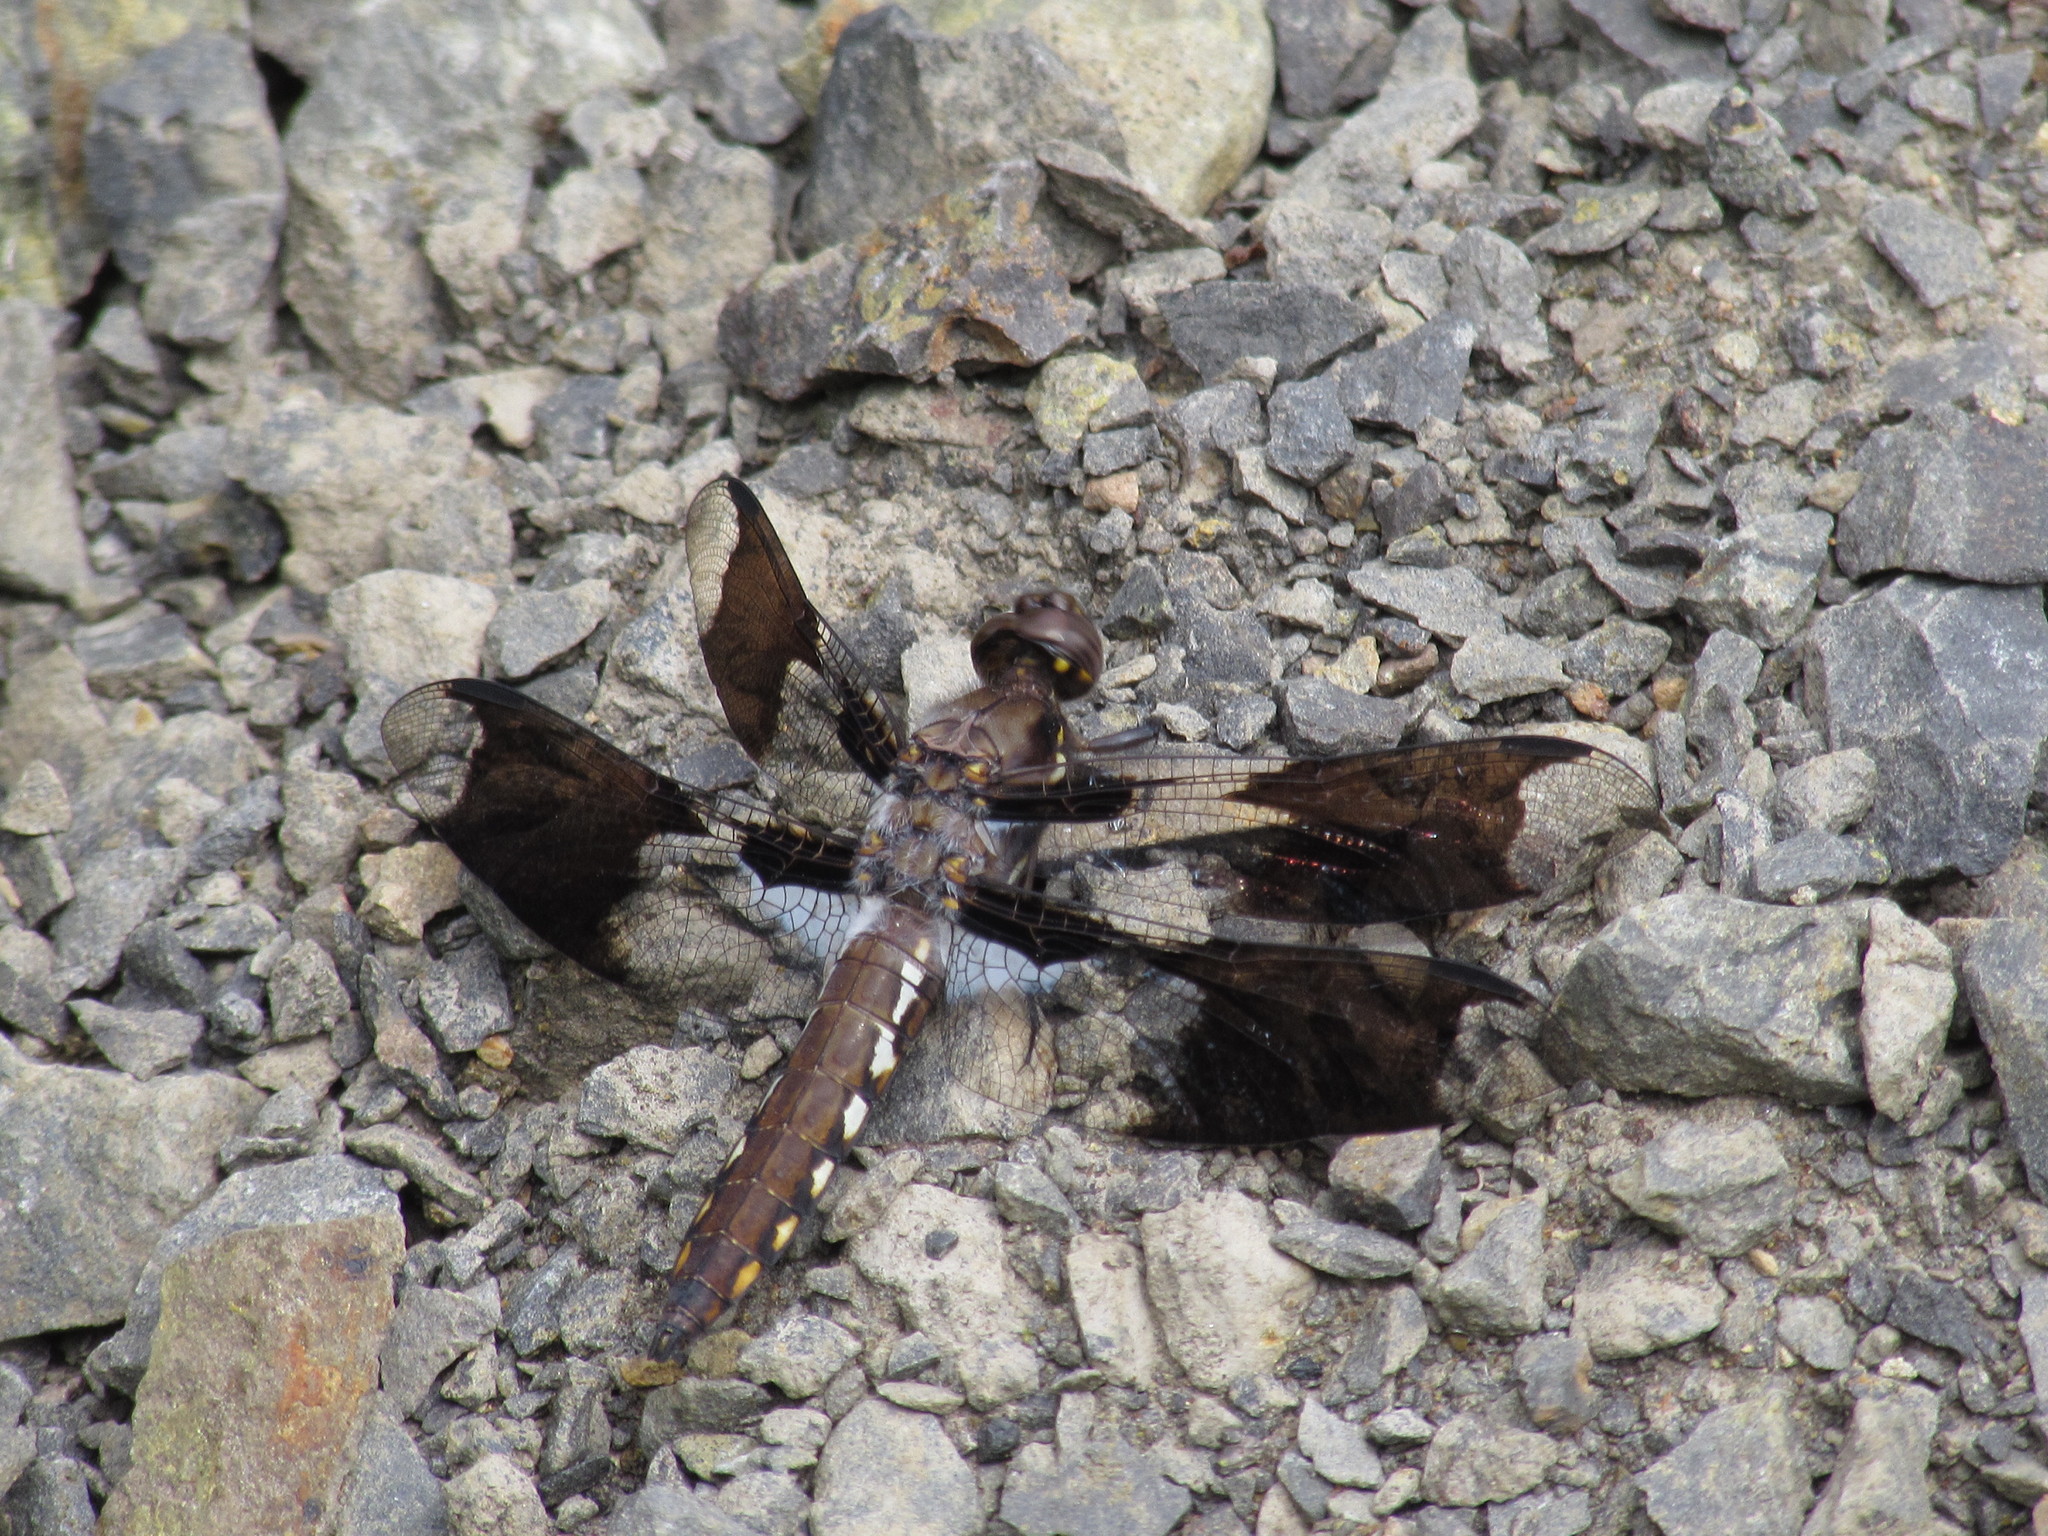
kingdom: Animalia
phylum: Arthropoda
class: Insecta
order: Odonata
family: Libellulidae
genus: Plathemis
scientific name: Plathemis lydia
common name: Common whitetail
